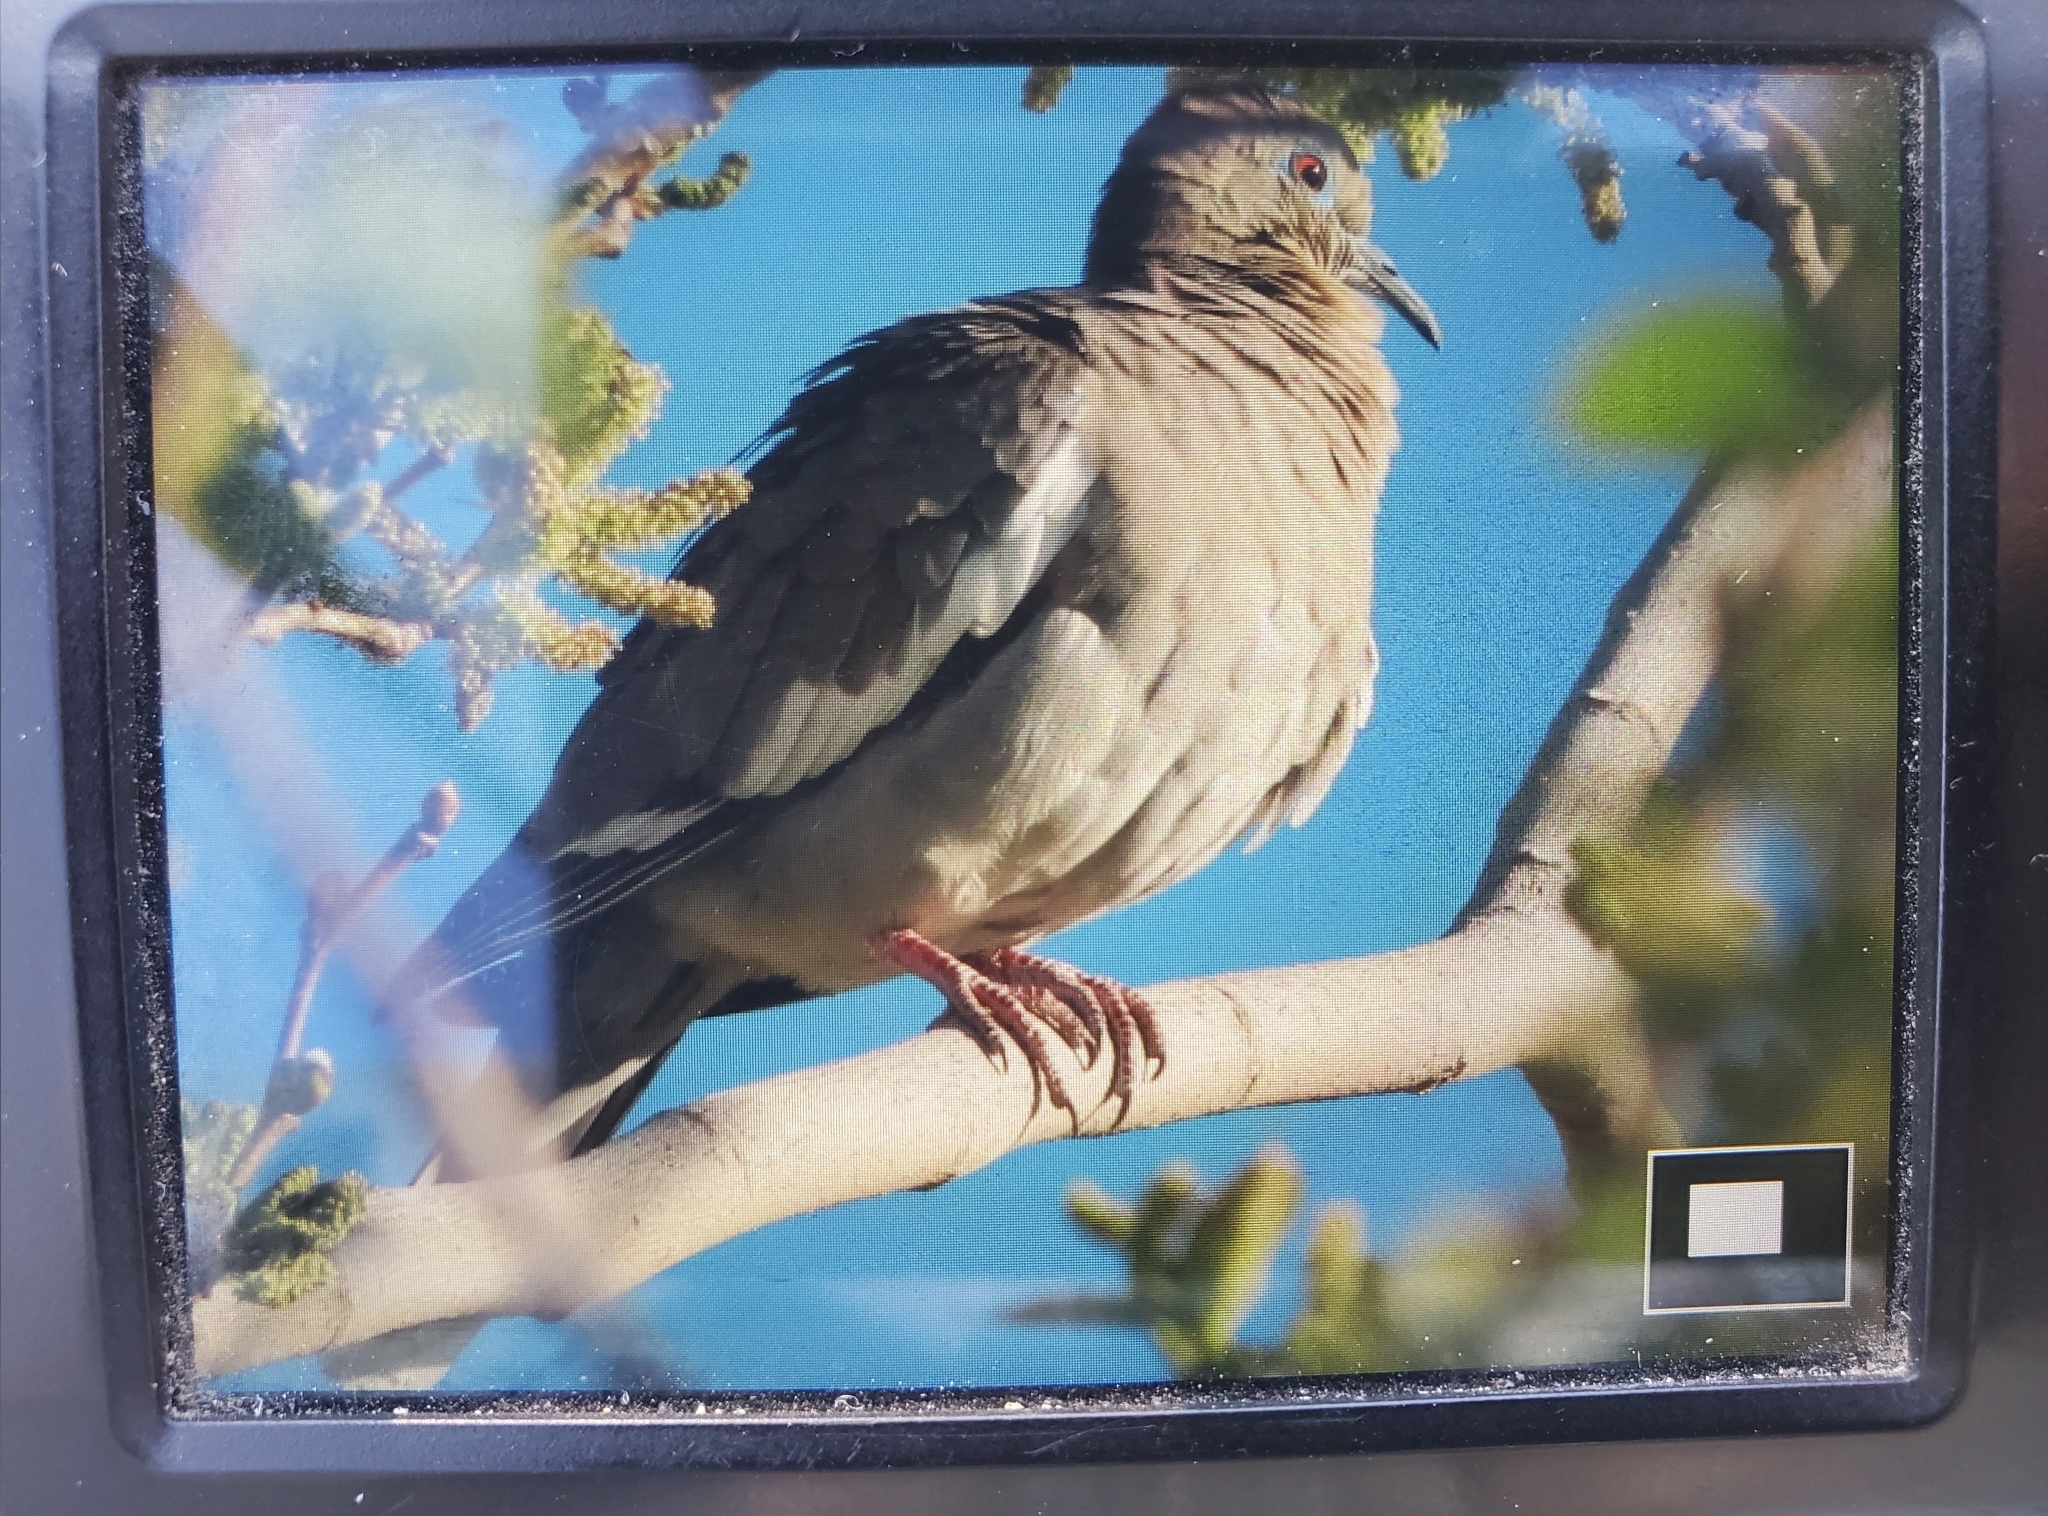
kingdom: Animalia
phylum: Chordata
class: Aves
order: Columbiformes
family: Columbidae
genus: Zenaida
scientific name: Zenaida asiatica
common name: White-winged dove
